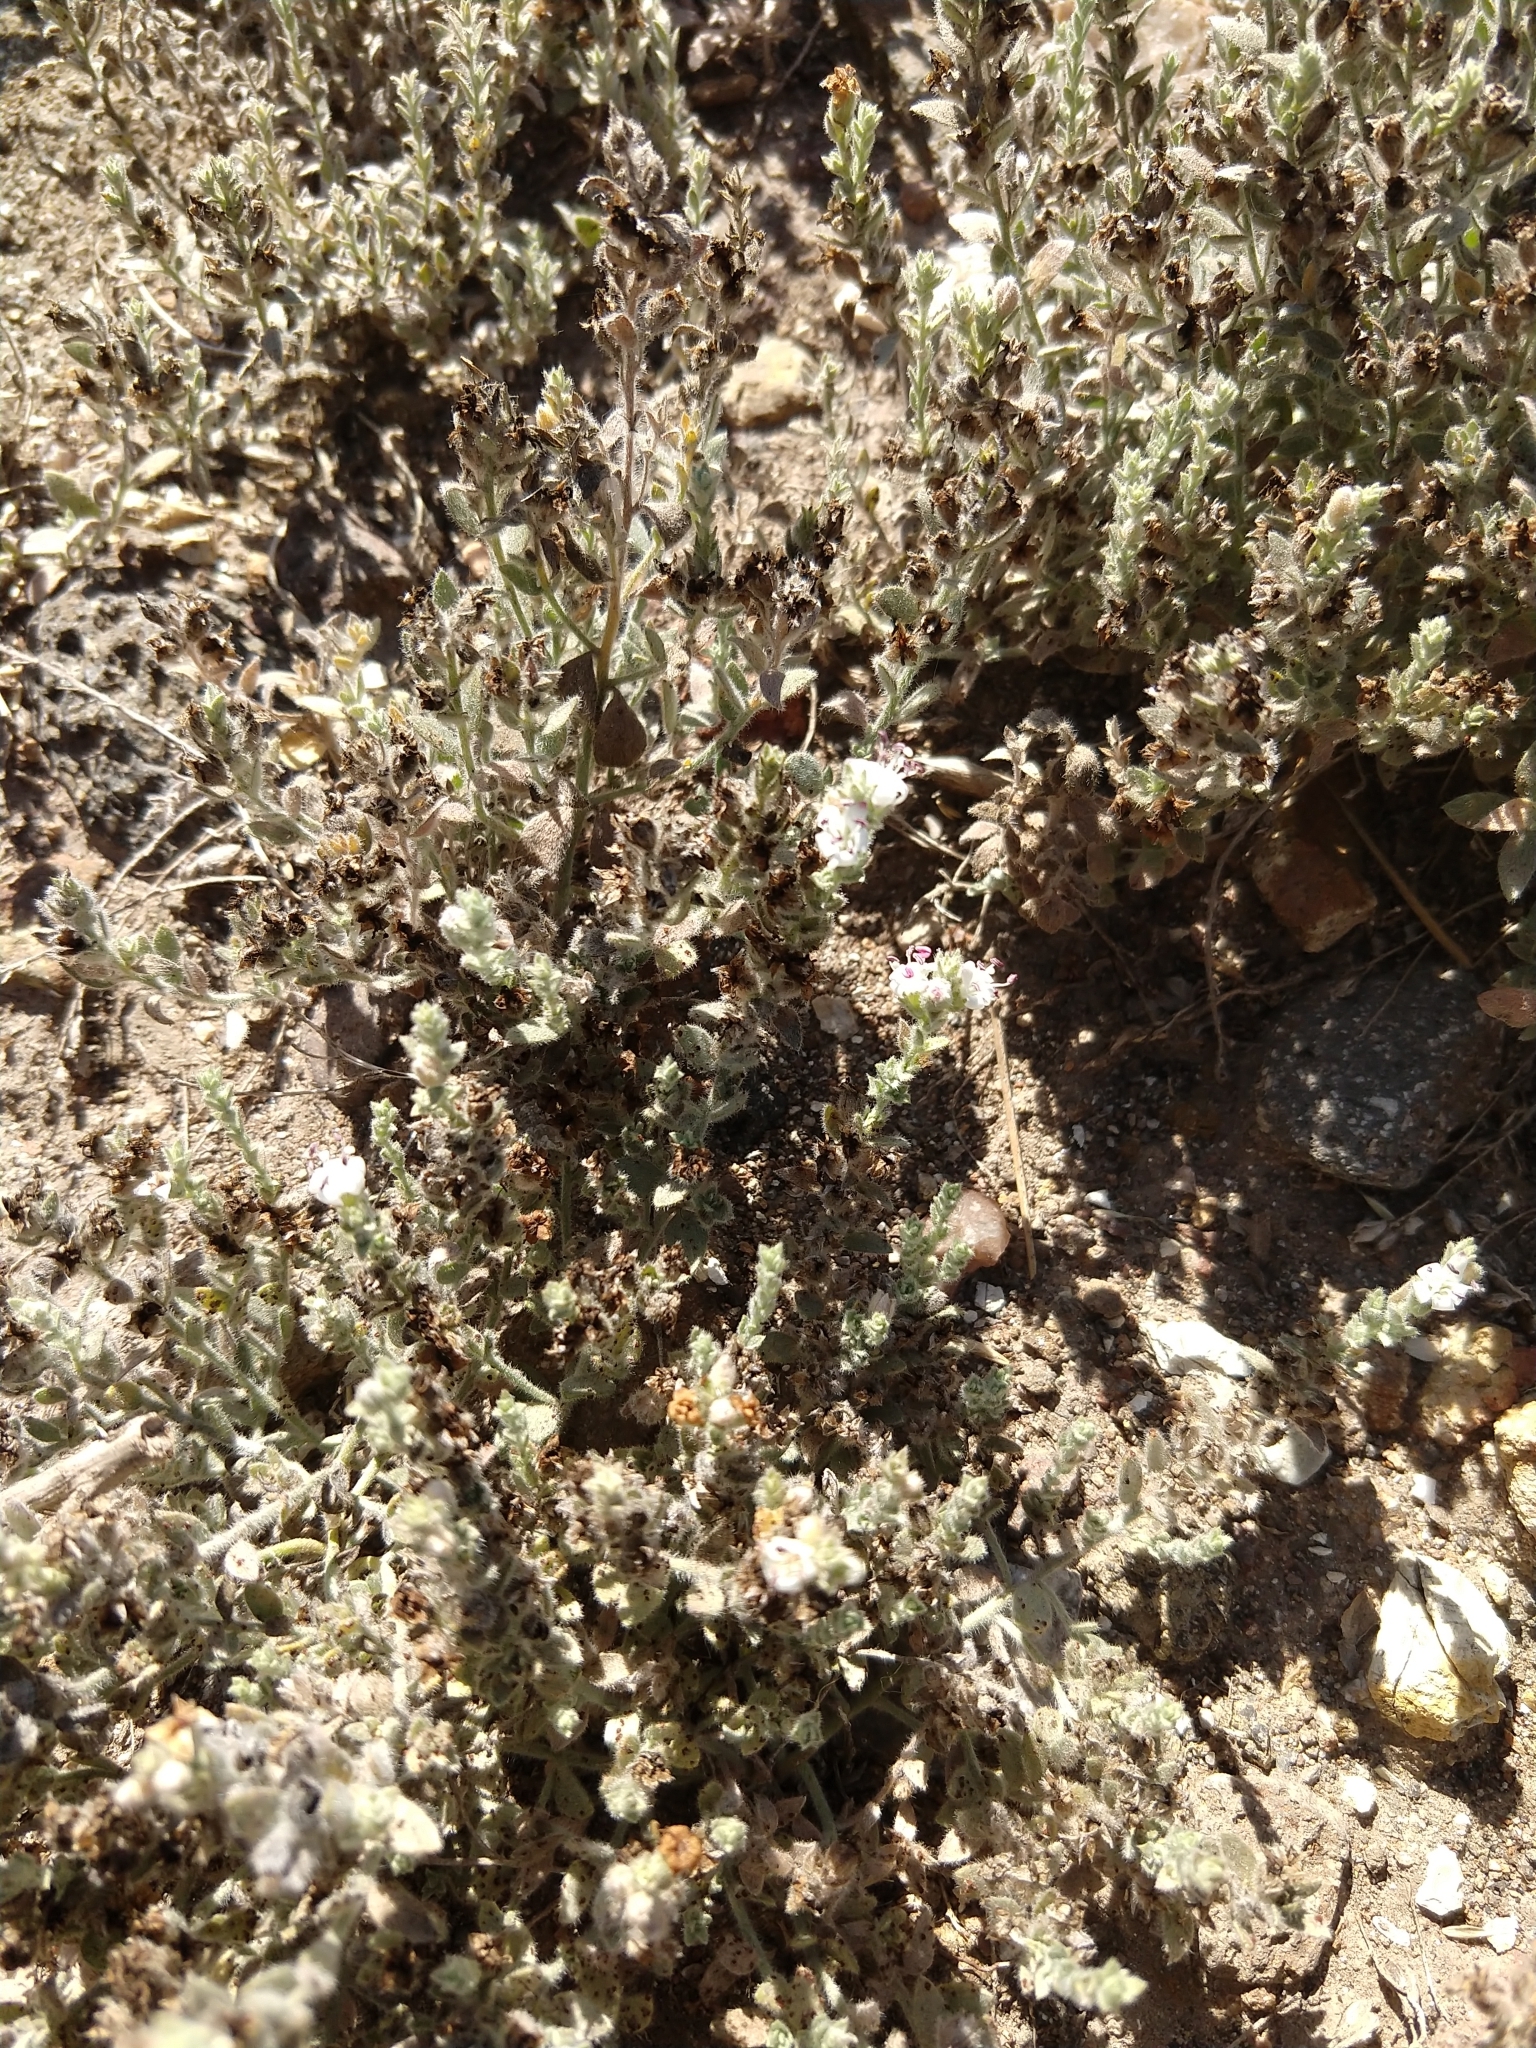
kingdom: Plantae
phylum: Tracheophyta
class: Magnoliopsida
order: Solanales
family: Convolvulaceae
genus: Cressa
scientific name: Cressa truxillensis
